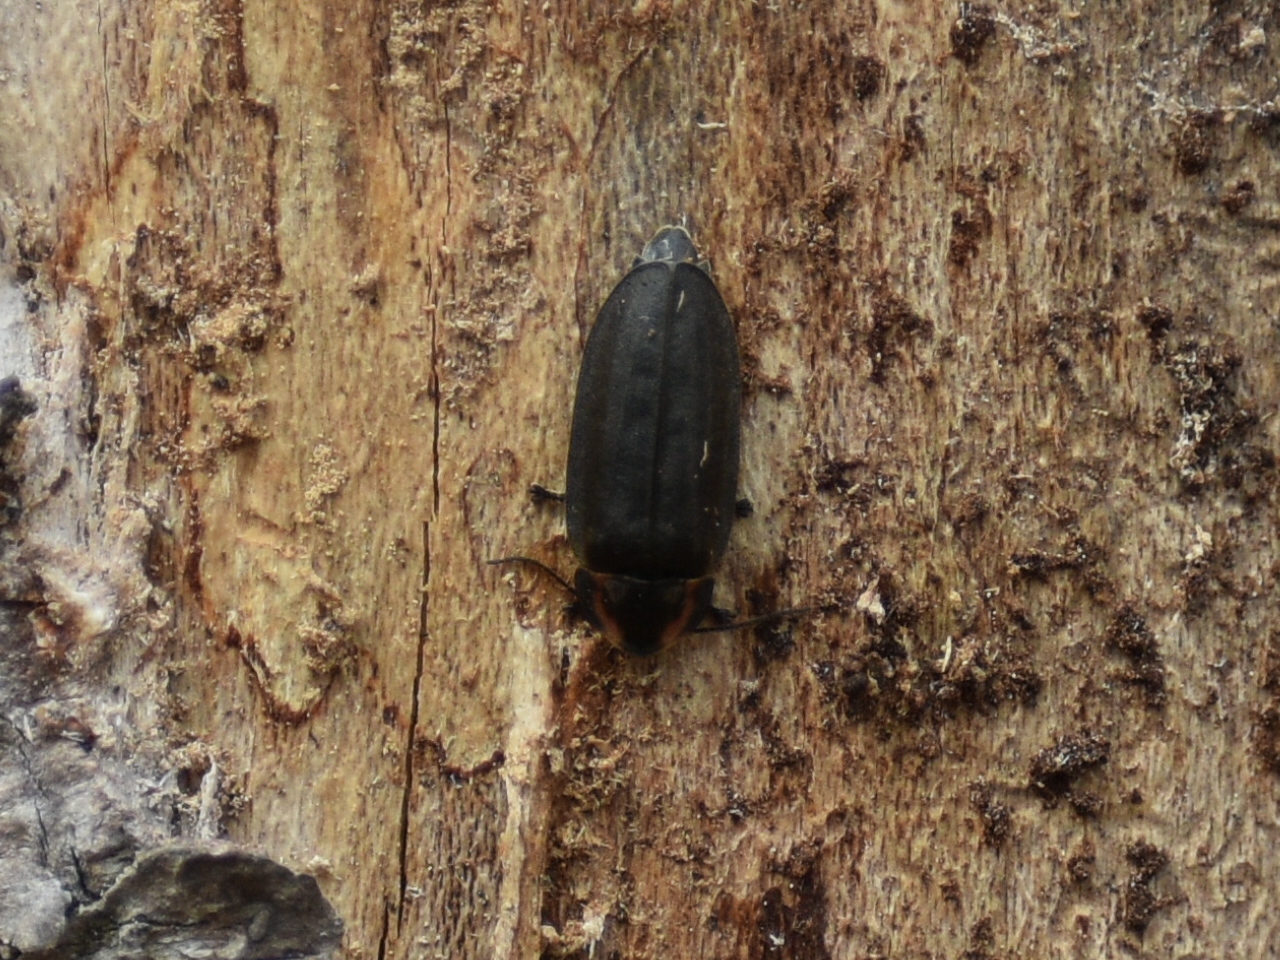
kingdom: Animalia
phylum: Arthropoda
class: Insecta
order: Coleoptera
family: Lampyridae
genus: Photinus
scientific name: Photinus corrusca
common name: Winter firefly
